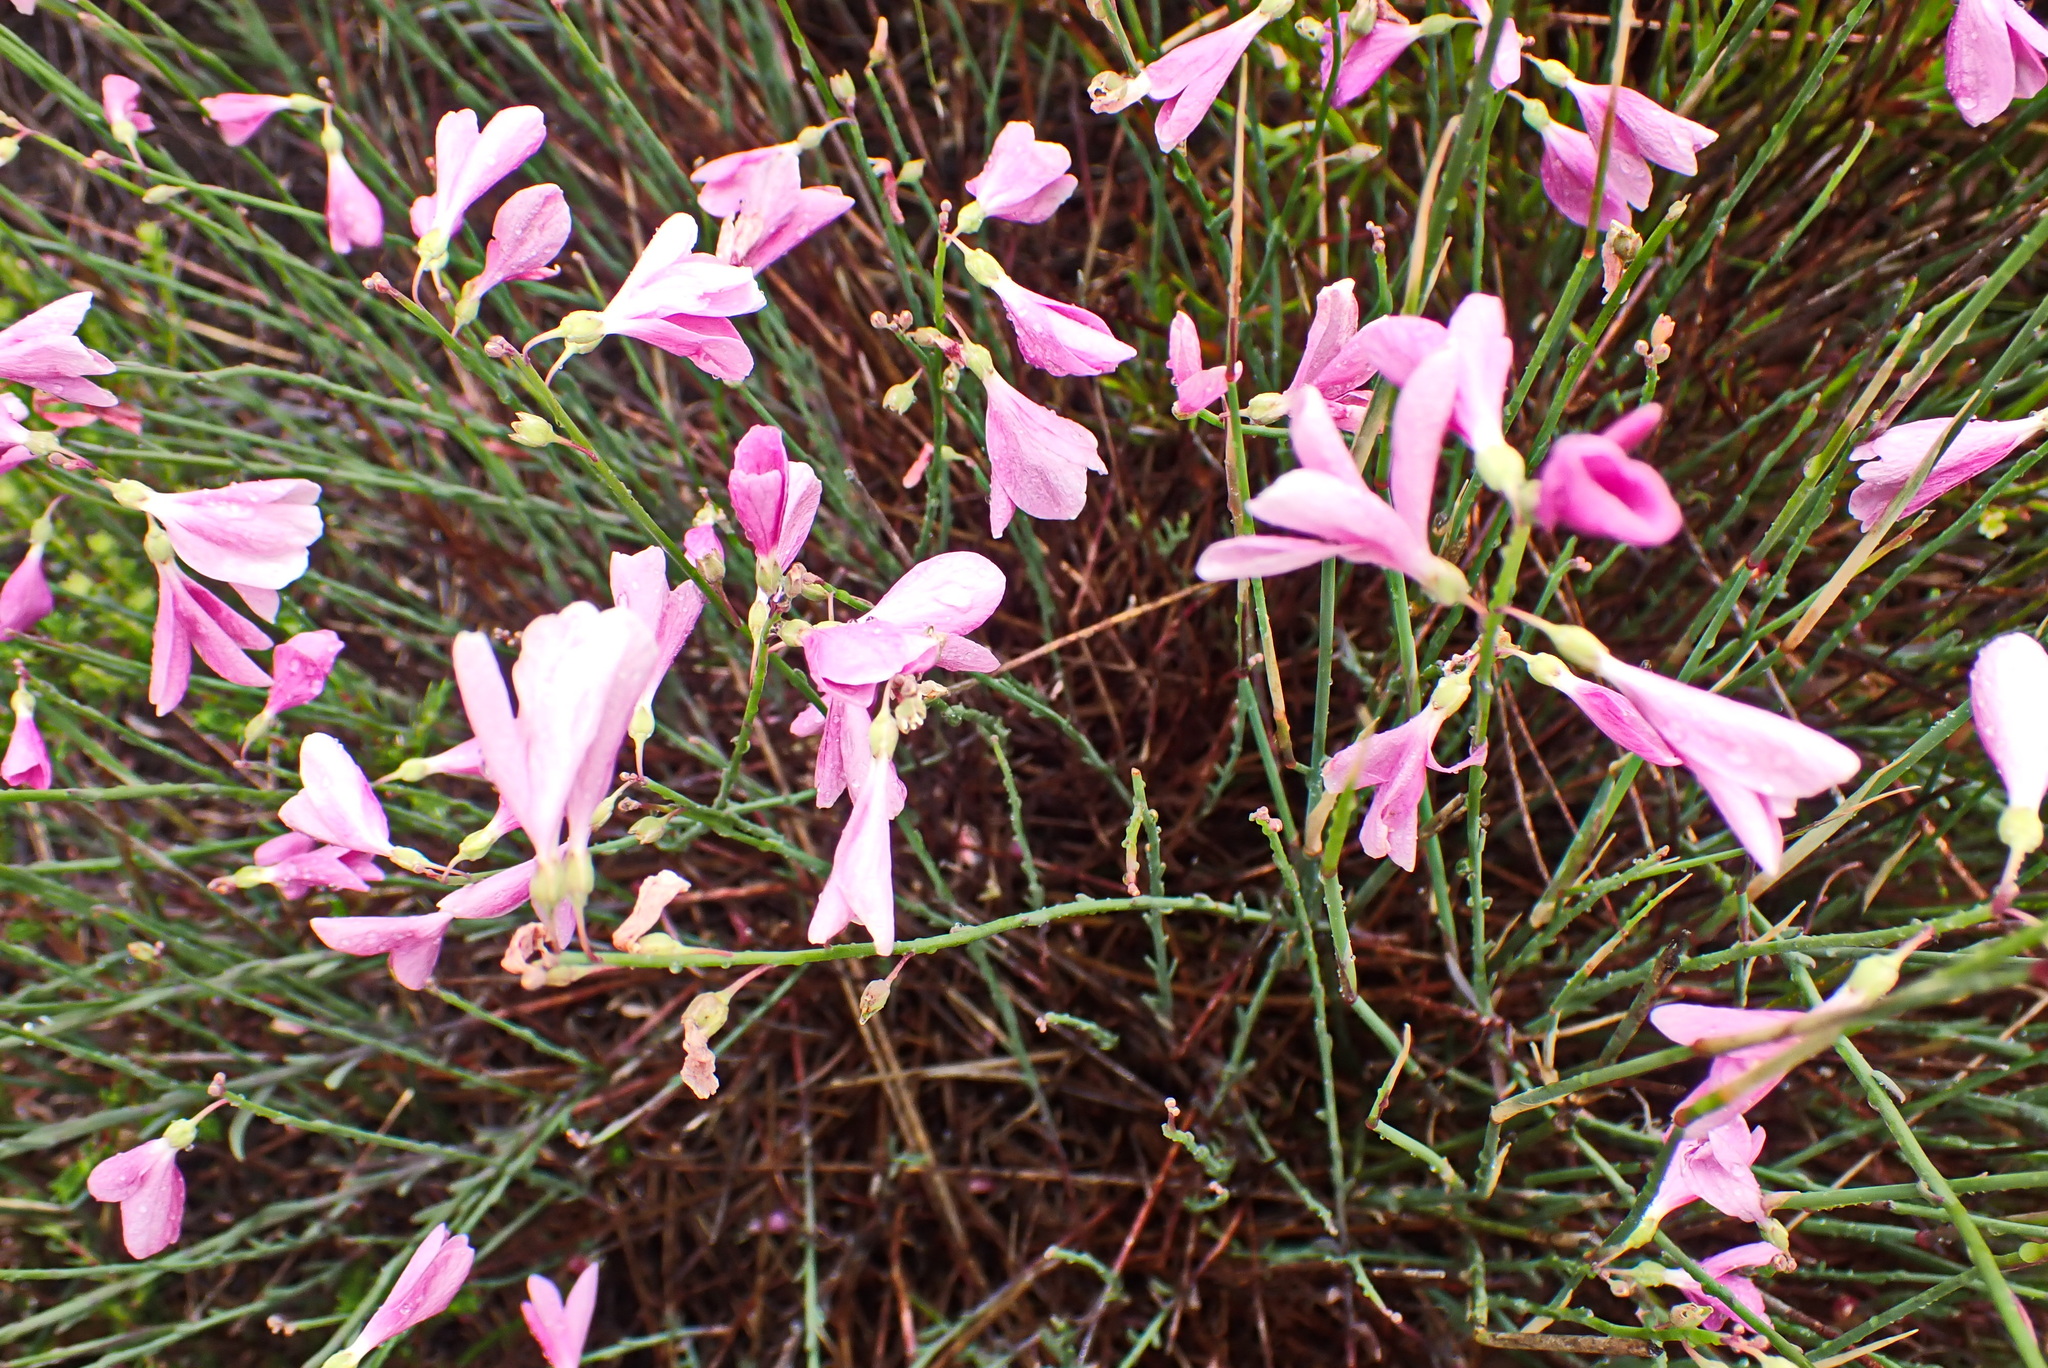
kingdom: Plantae
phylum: Tracheophyta
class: Magnoliopsida
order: Brassicales
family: Brassicaceae
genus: Heliophila
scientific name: Heliophila juncea
